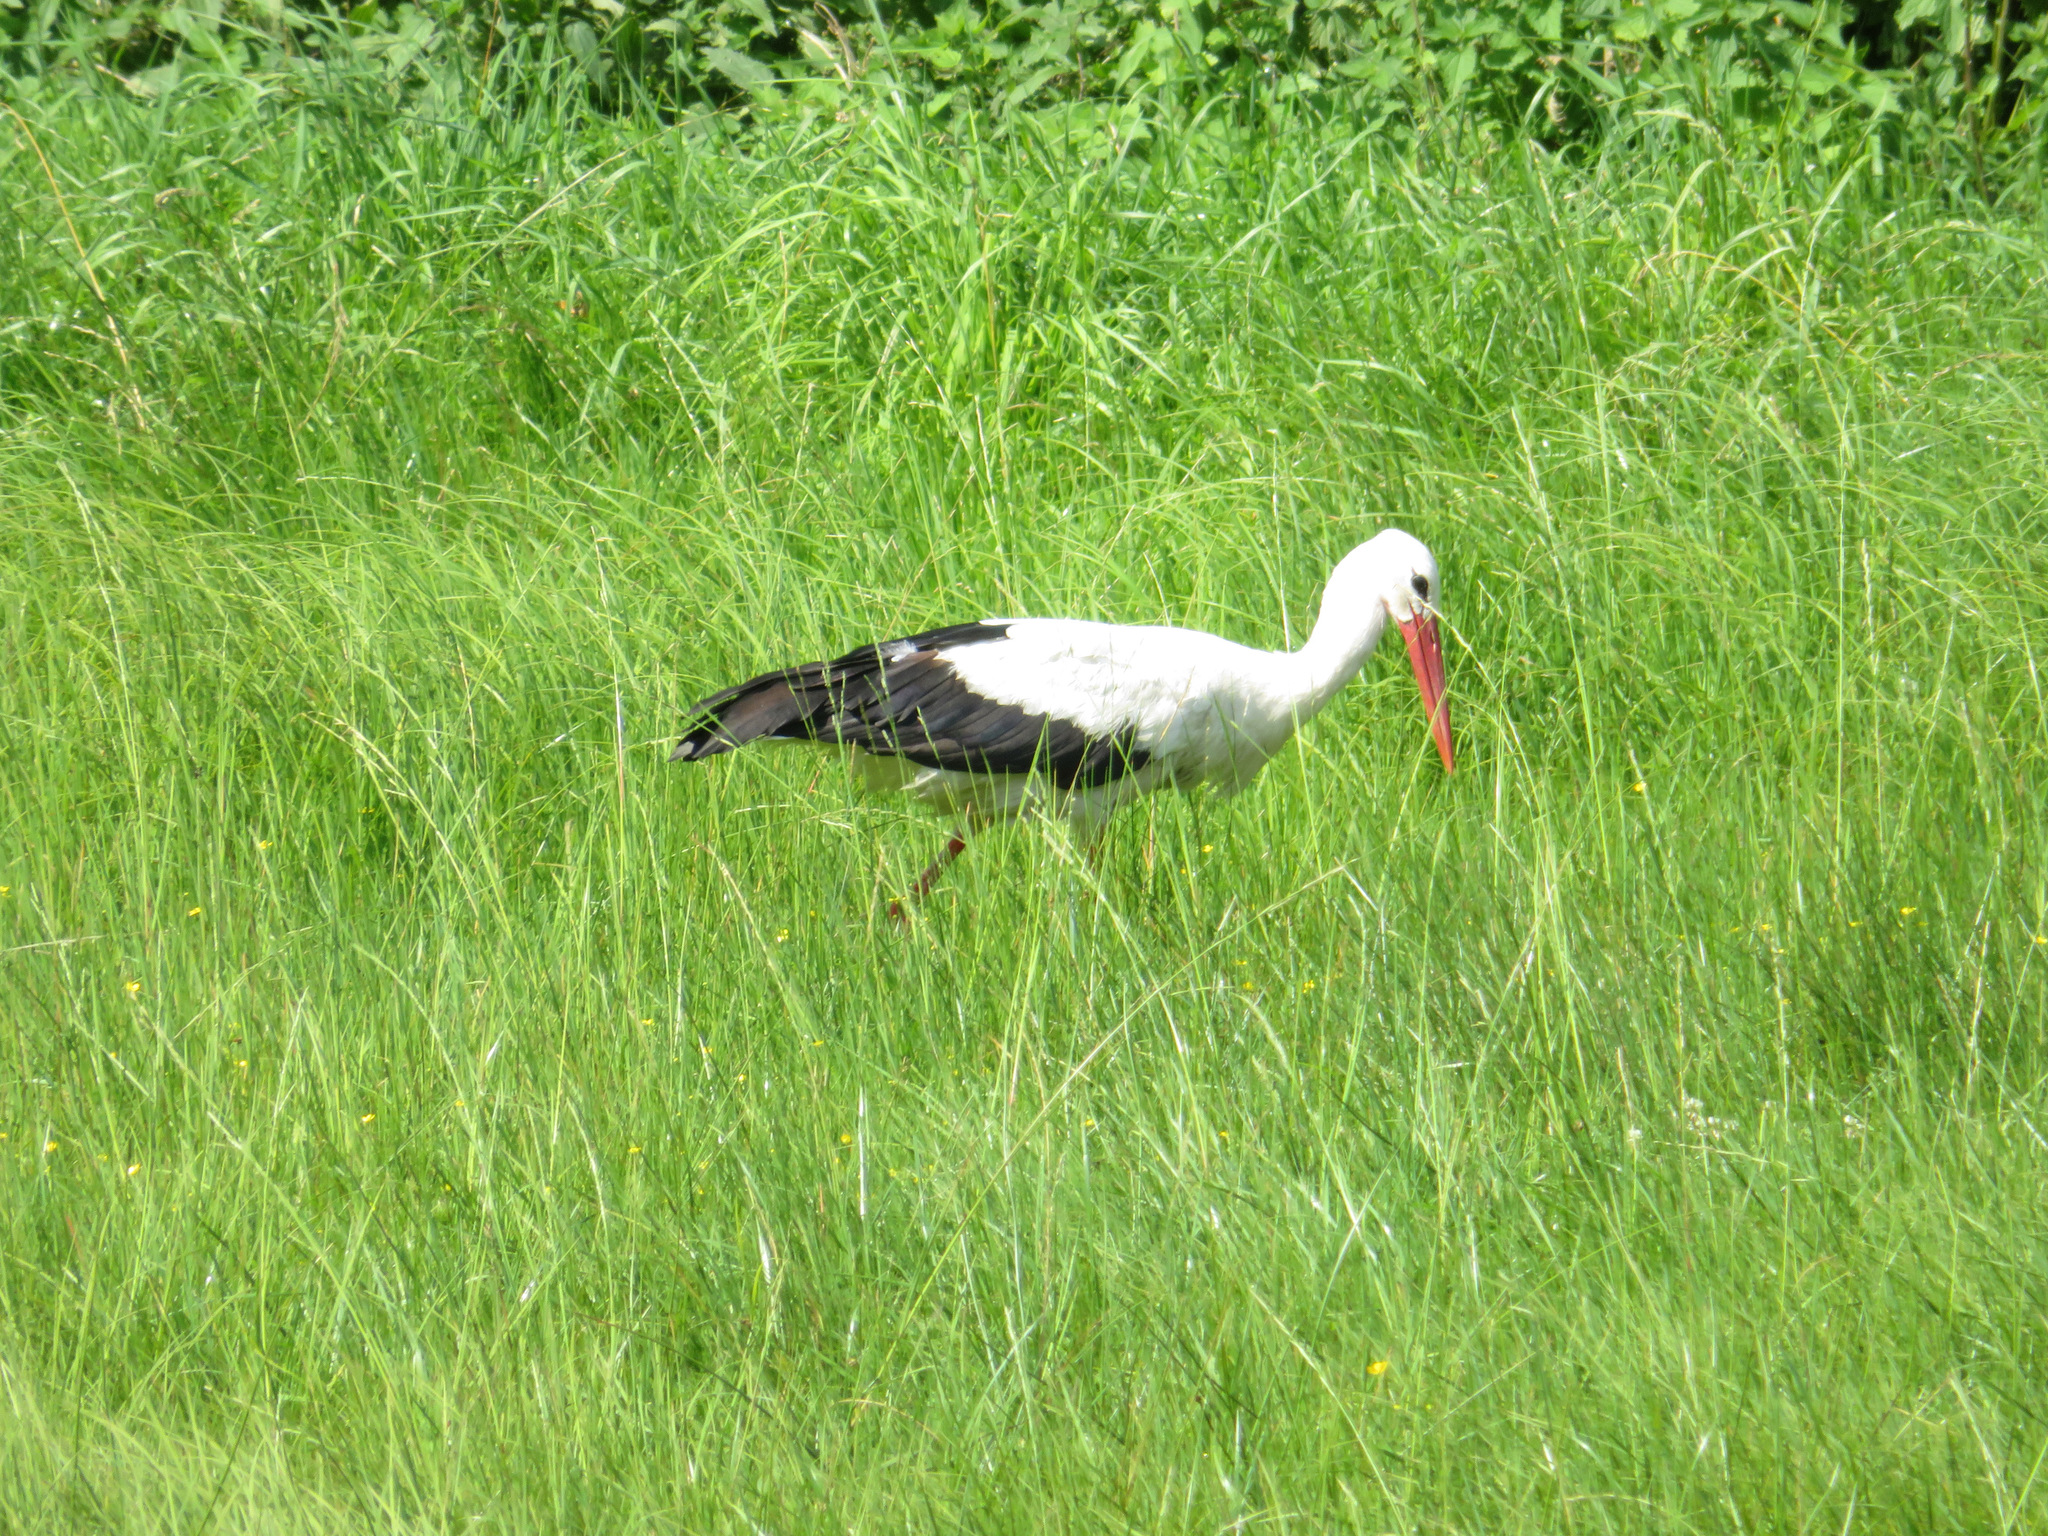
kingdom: Animalia
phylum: Chordata
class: Aves
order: Ciconiiformes
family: Ciconiidae
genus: Ciconia
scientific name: Ciconia ciconia
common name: White stork
